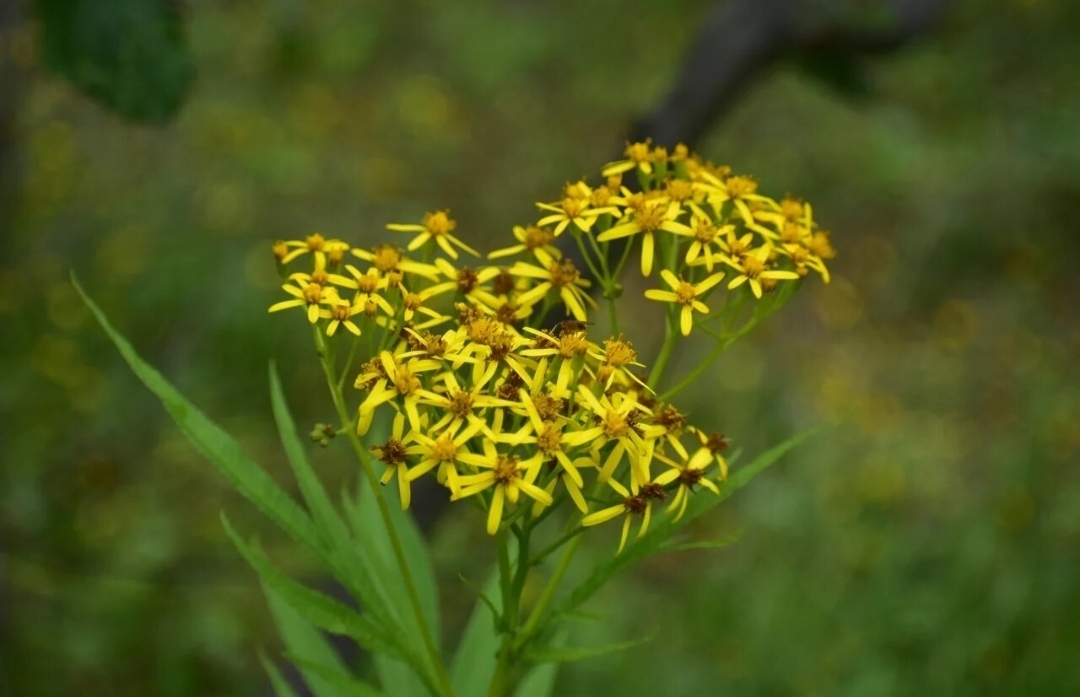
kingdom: Plantae
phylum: Tracheophyta
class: Magnoliopsida
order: Asterales
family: Asteraceae
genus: Jacobaea
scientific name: Jacobaea cannabifolia
